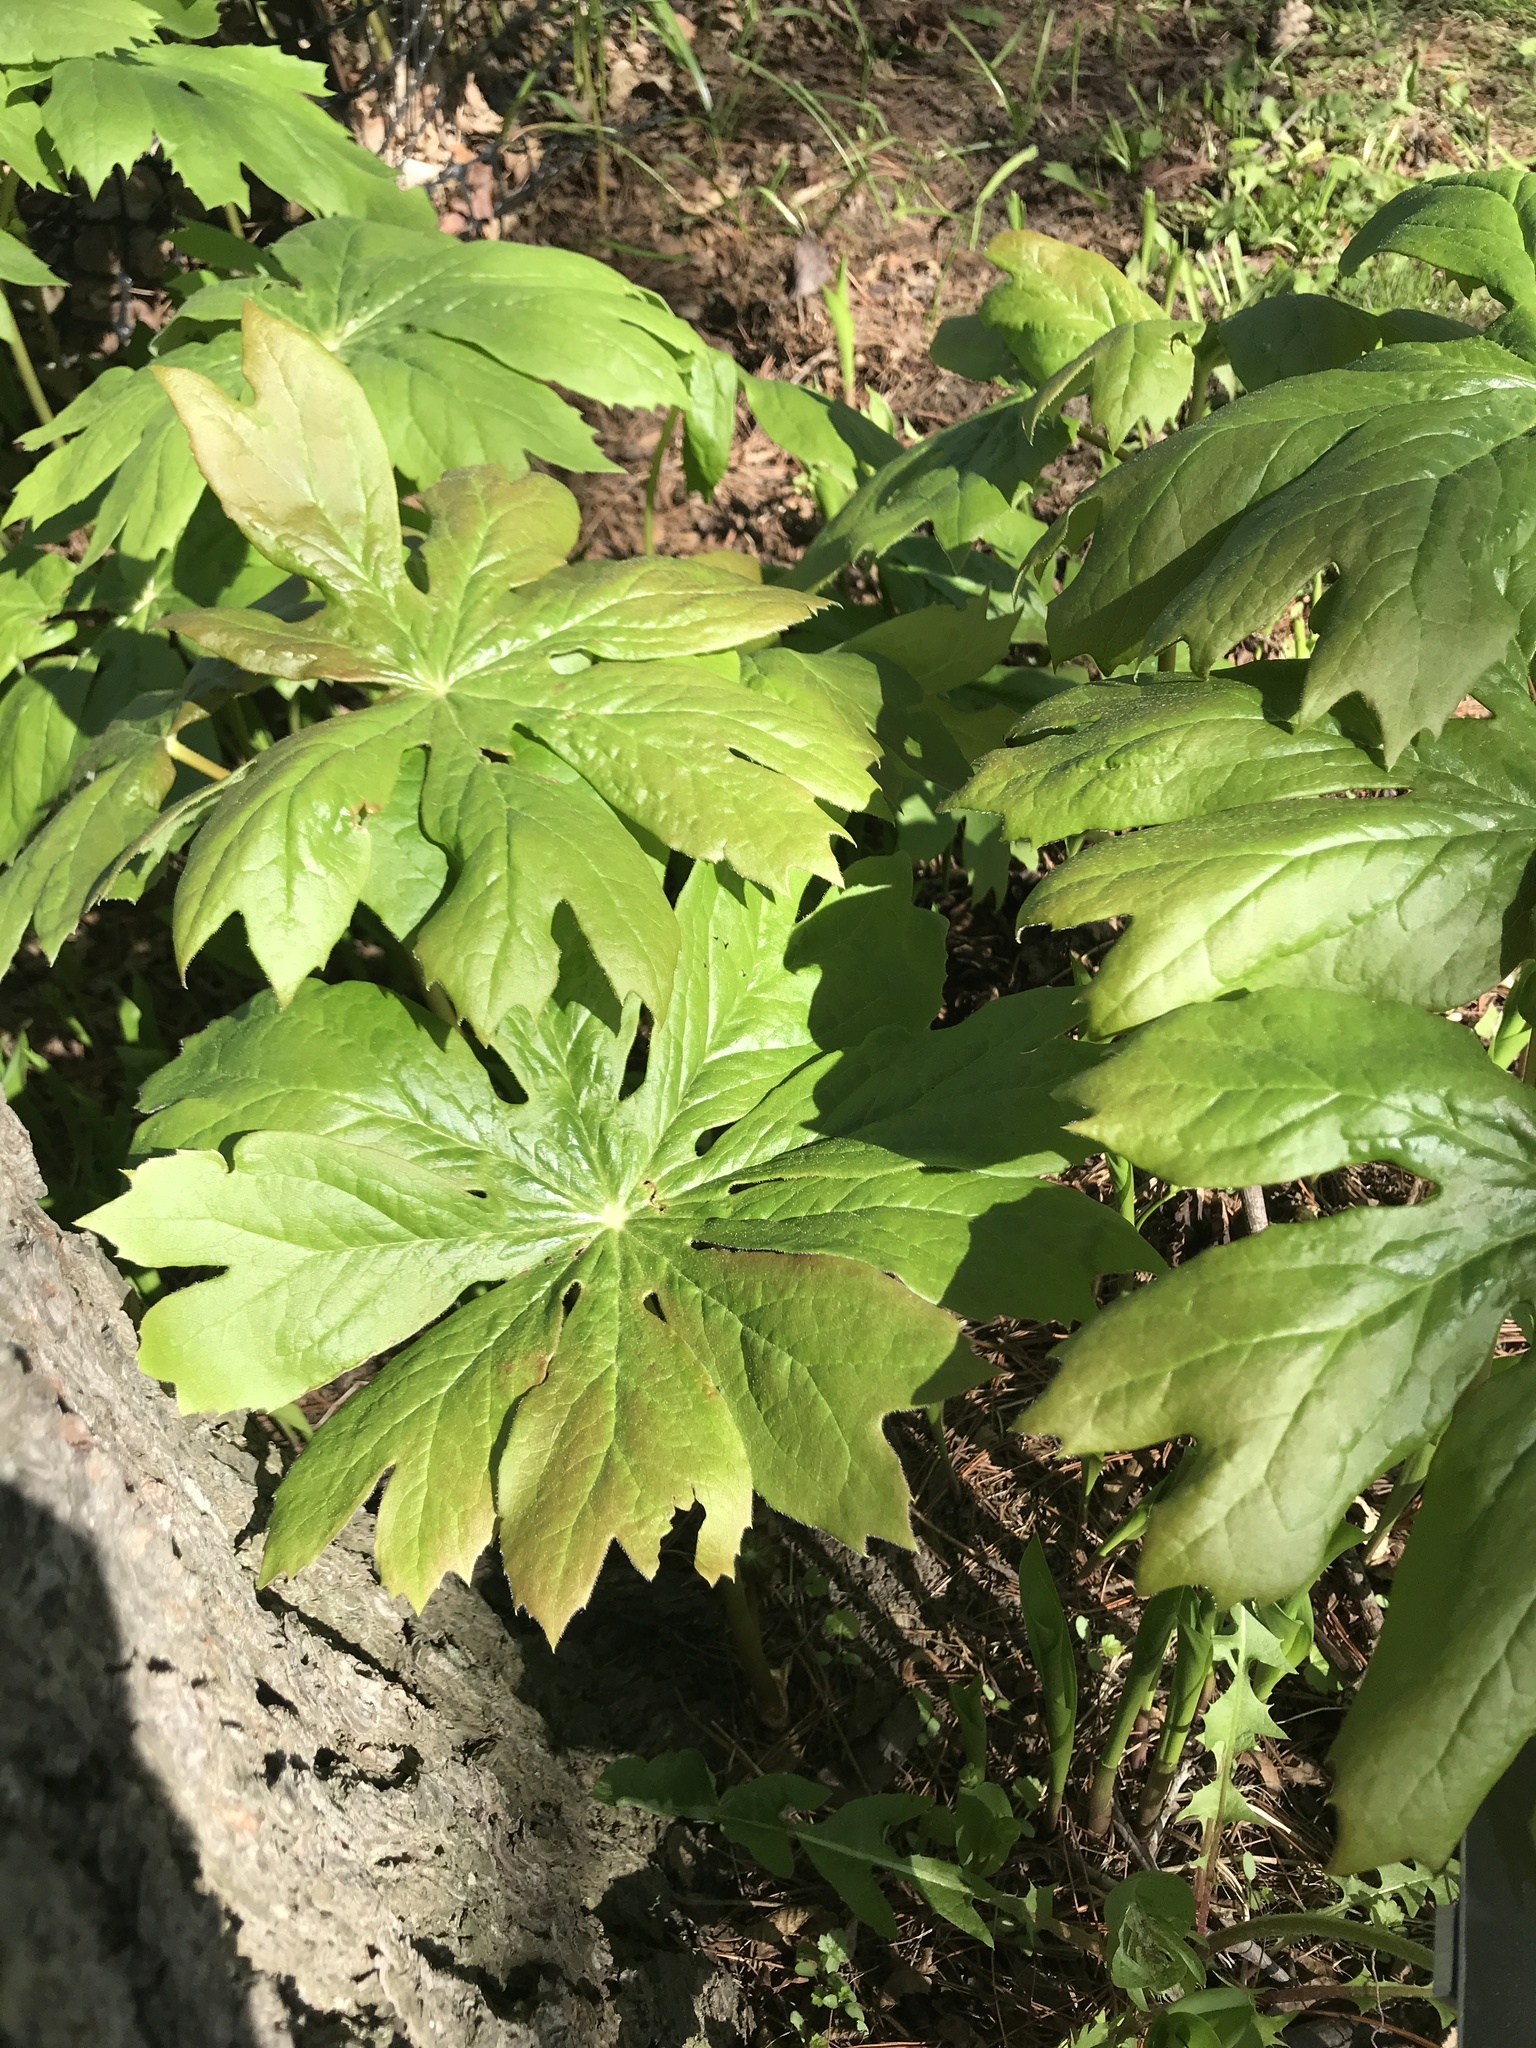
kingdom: Plantae
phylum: Tracheophyta
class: Magnoliopsida
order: Ranunculales
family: Berberidaceae
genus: Podophyllum
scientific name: Podophyllum peltatum
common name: Wild mandrake
